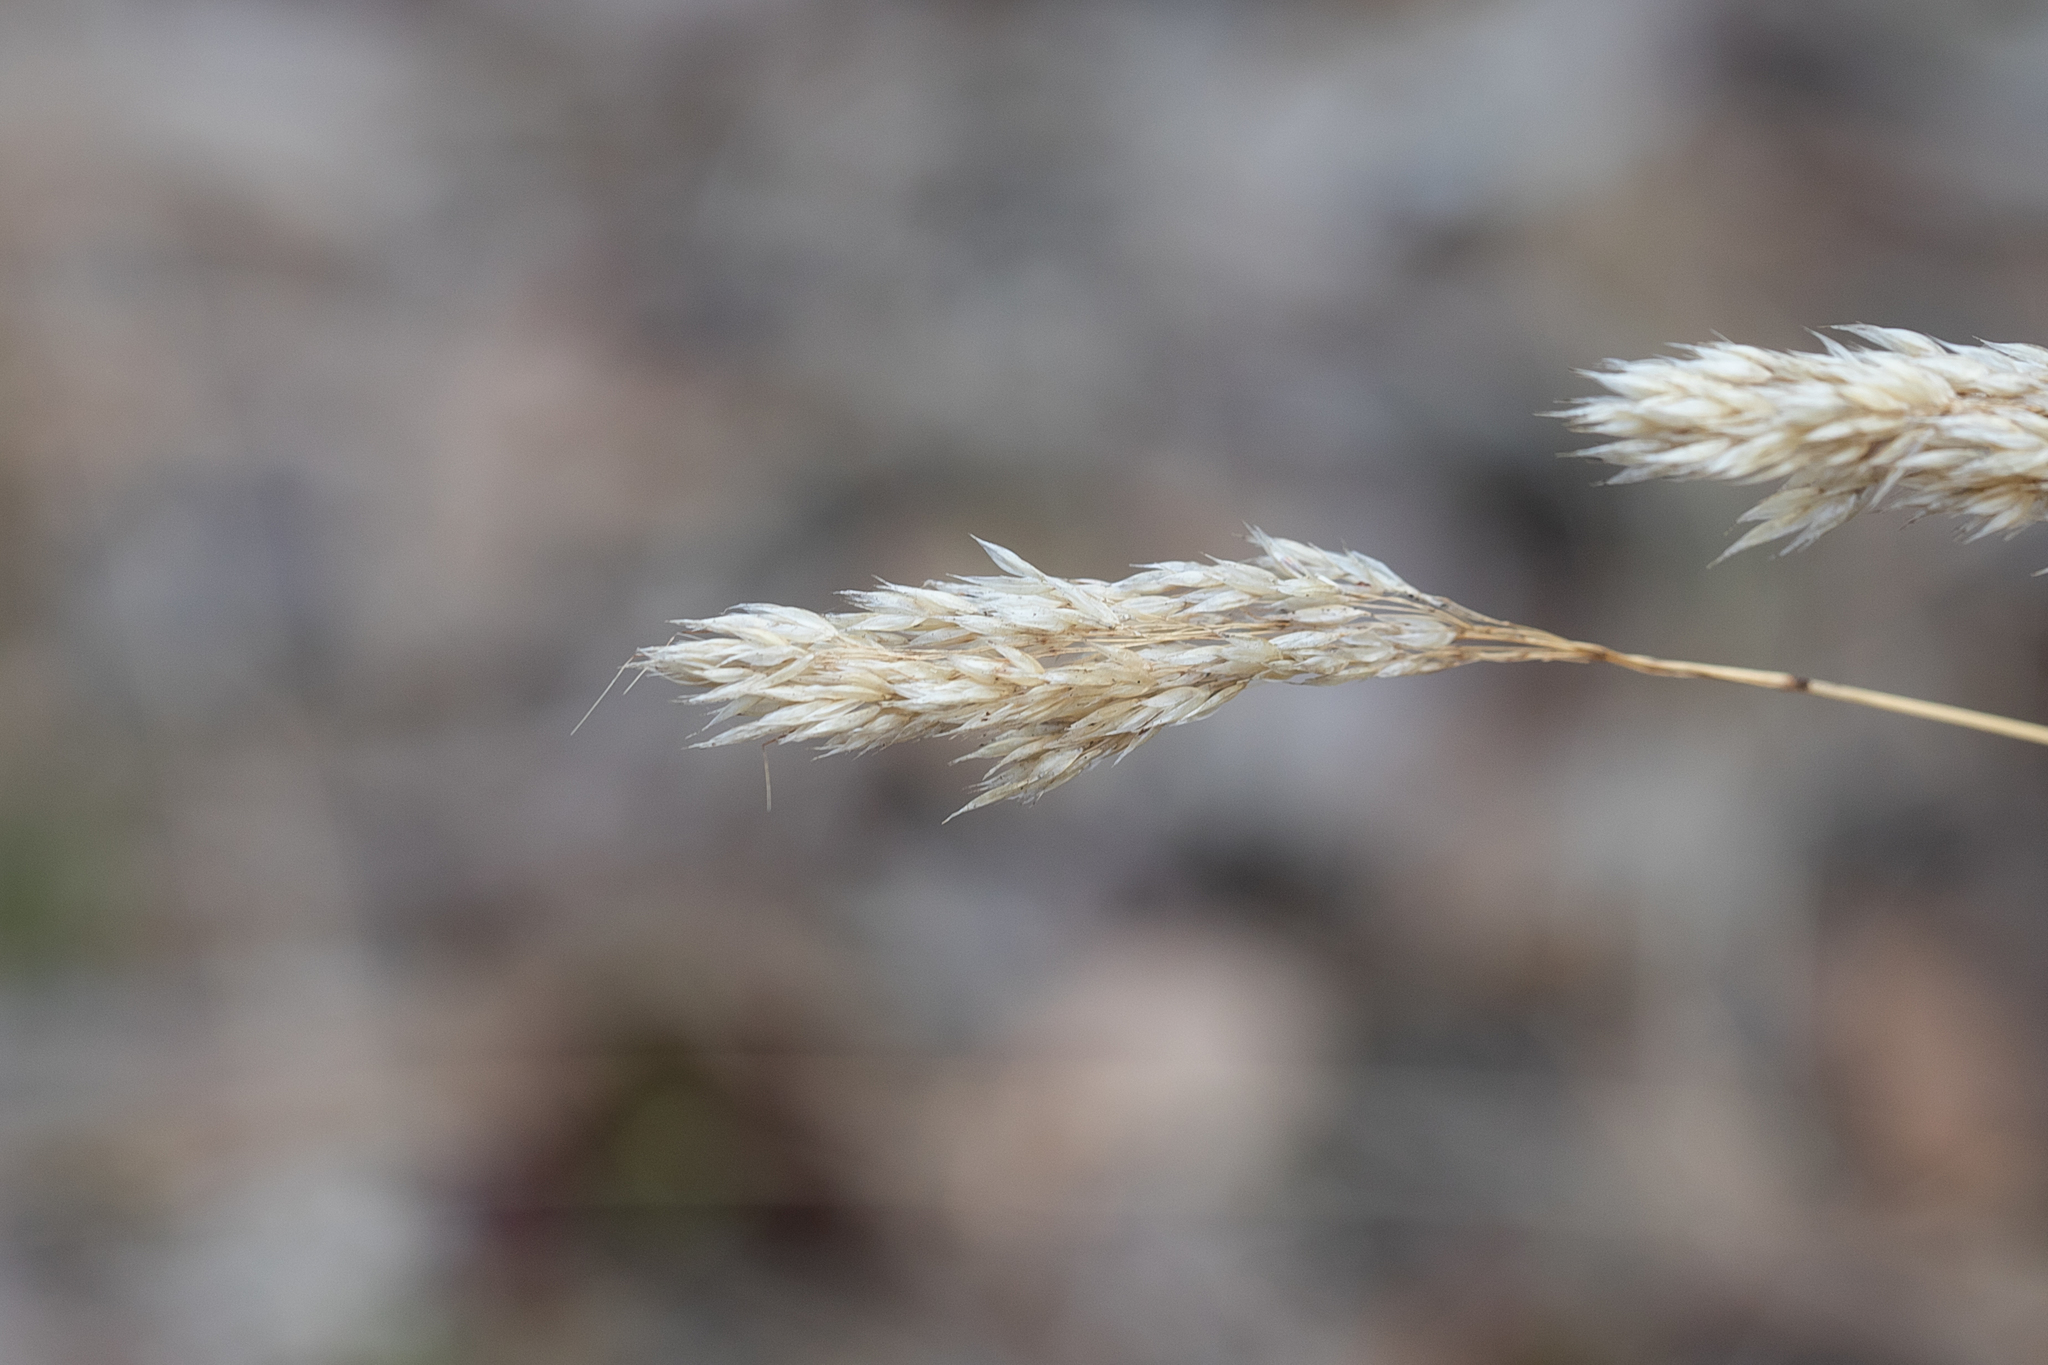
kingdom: Plantae
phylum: Tracheophyta
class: Liliopsida
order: Poales
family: Poaceae
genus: Pentameris
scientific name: Pentameris pallida
